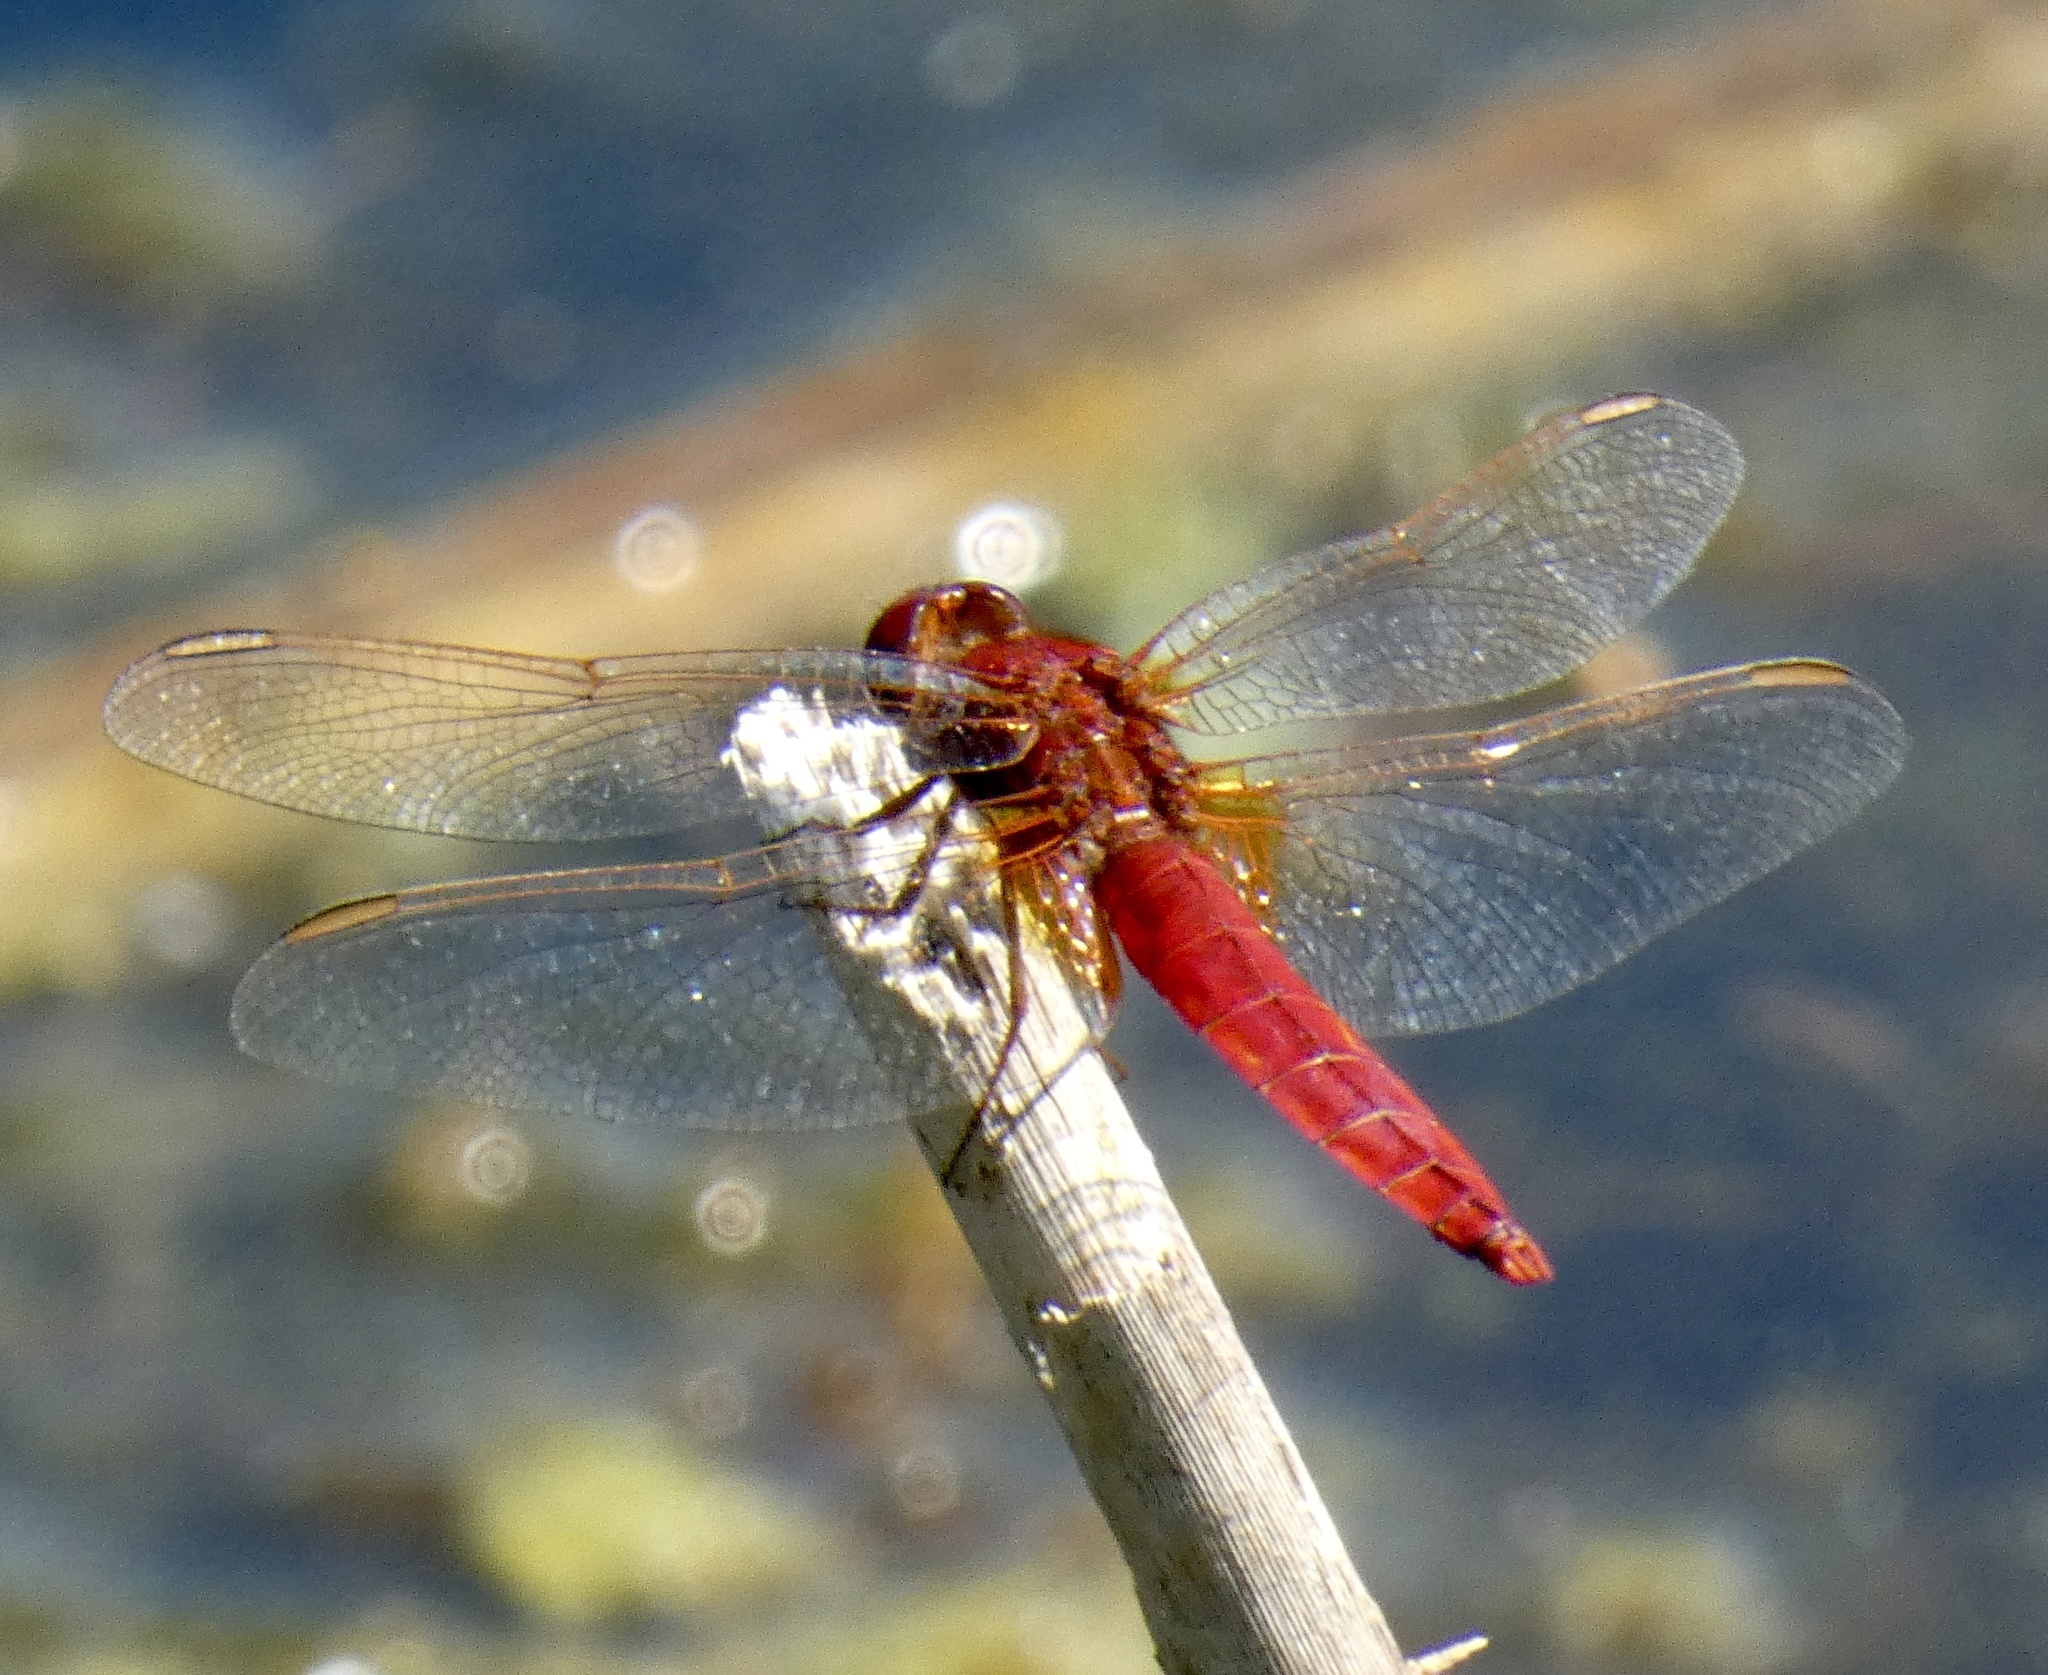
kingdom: Animalia
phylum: Arthropoda
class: Insecta
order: Odonata
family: Libellulidae
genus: Crocothemis
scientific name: Crocothemis erythraea
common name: Scarlet dragonfly
